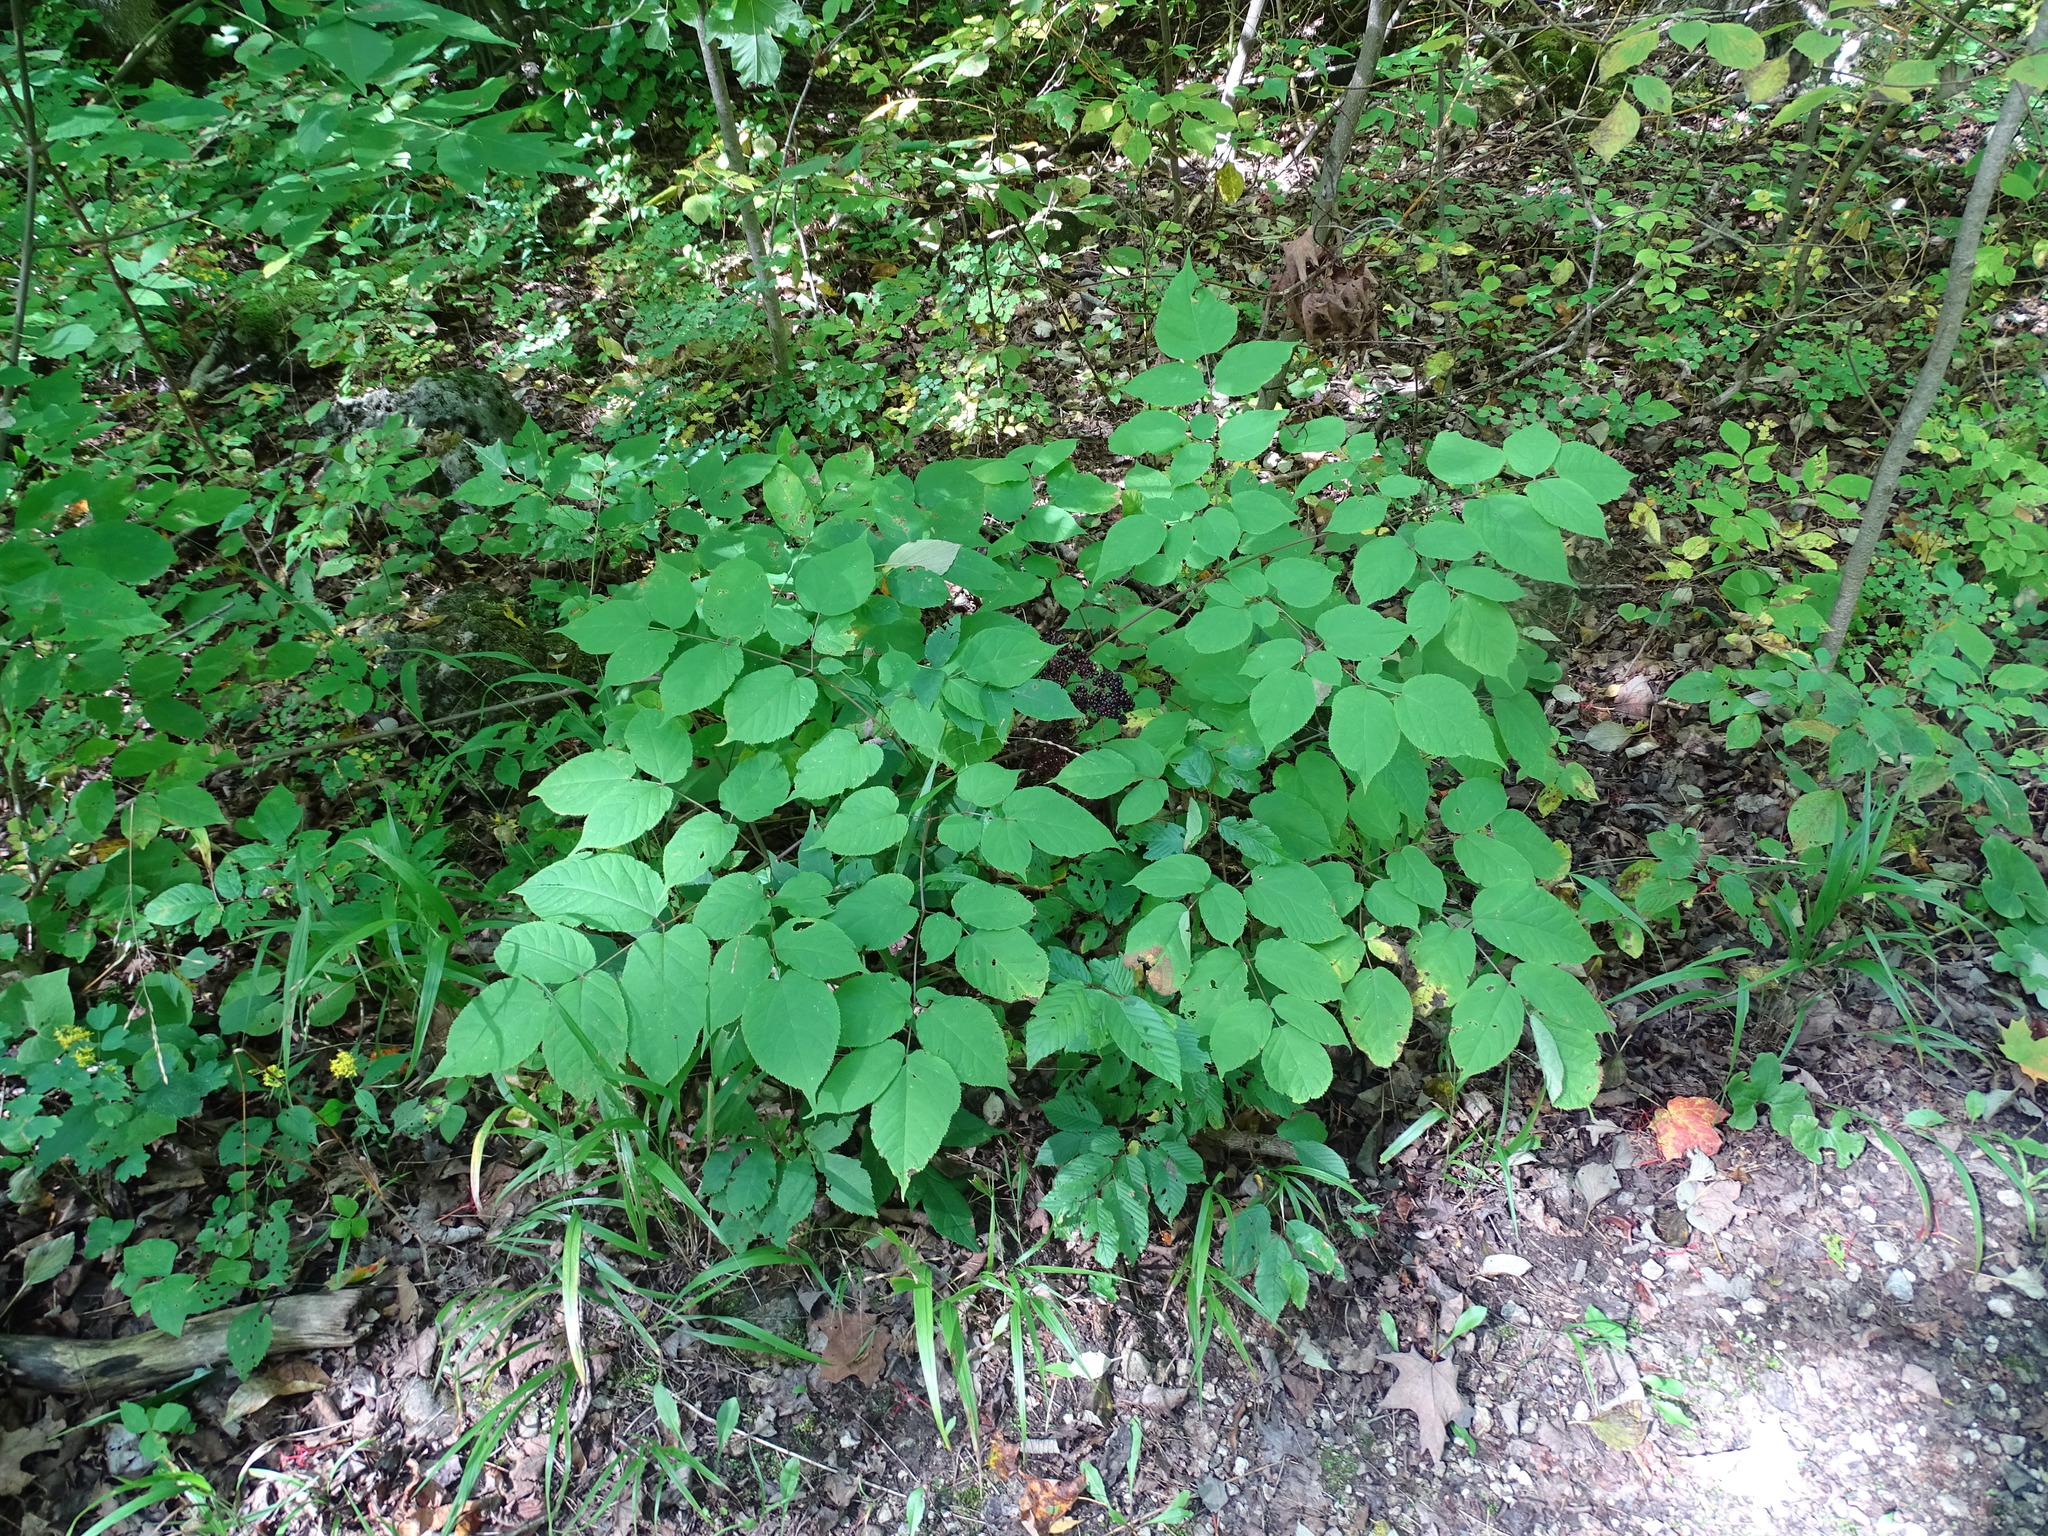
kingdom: Plantae
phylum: Tracheophyta
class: Magnoliopsida
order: Apiales
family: Araliaceae
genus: Aralia
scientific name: Aralia racemosa
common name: American-spikenard
